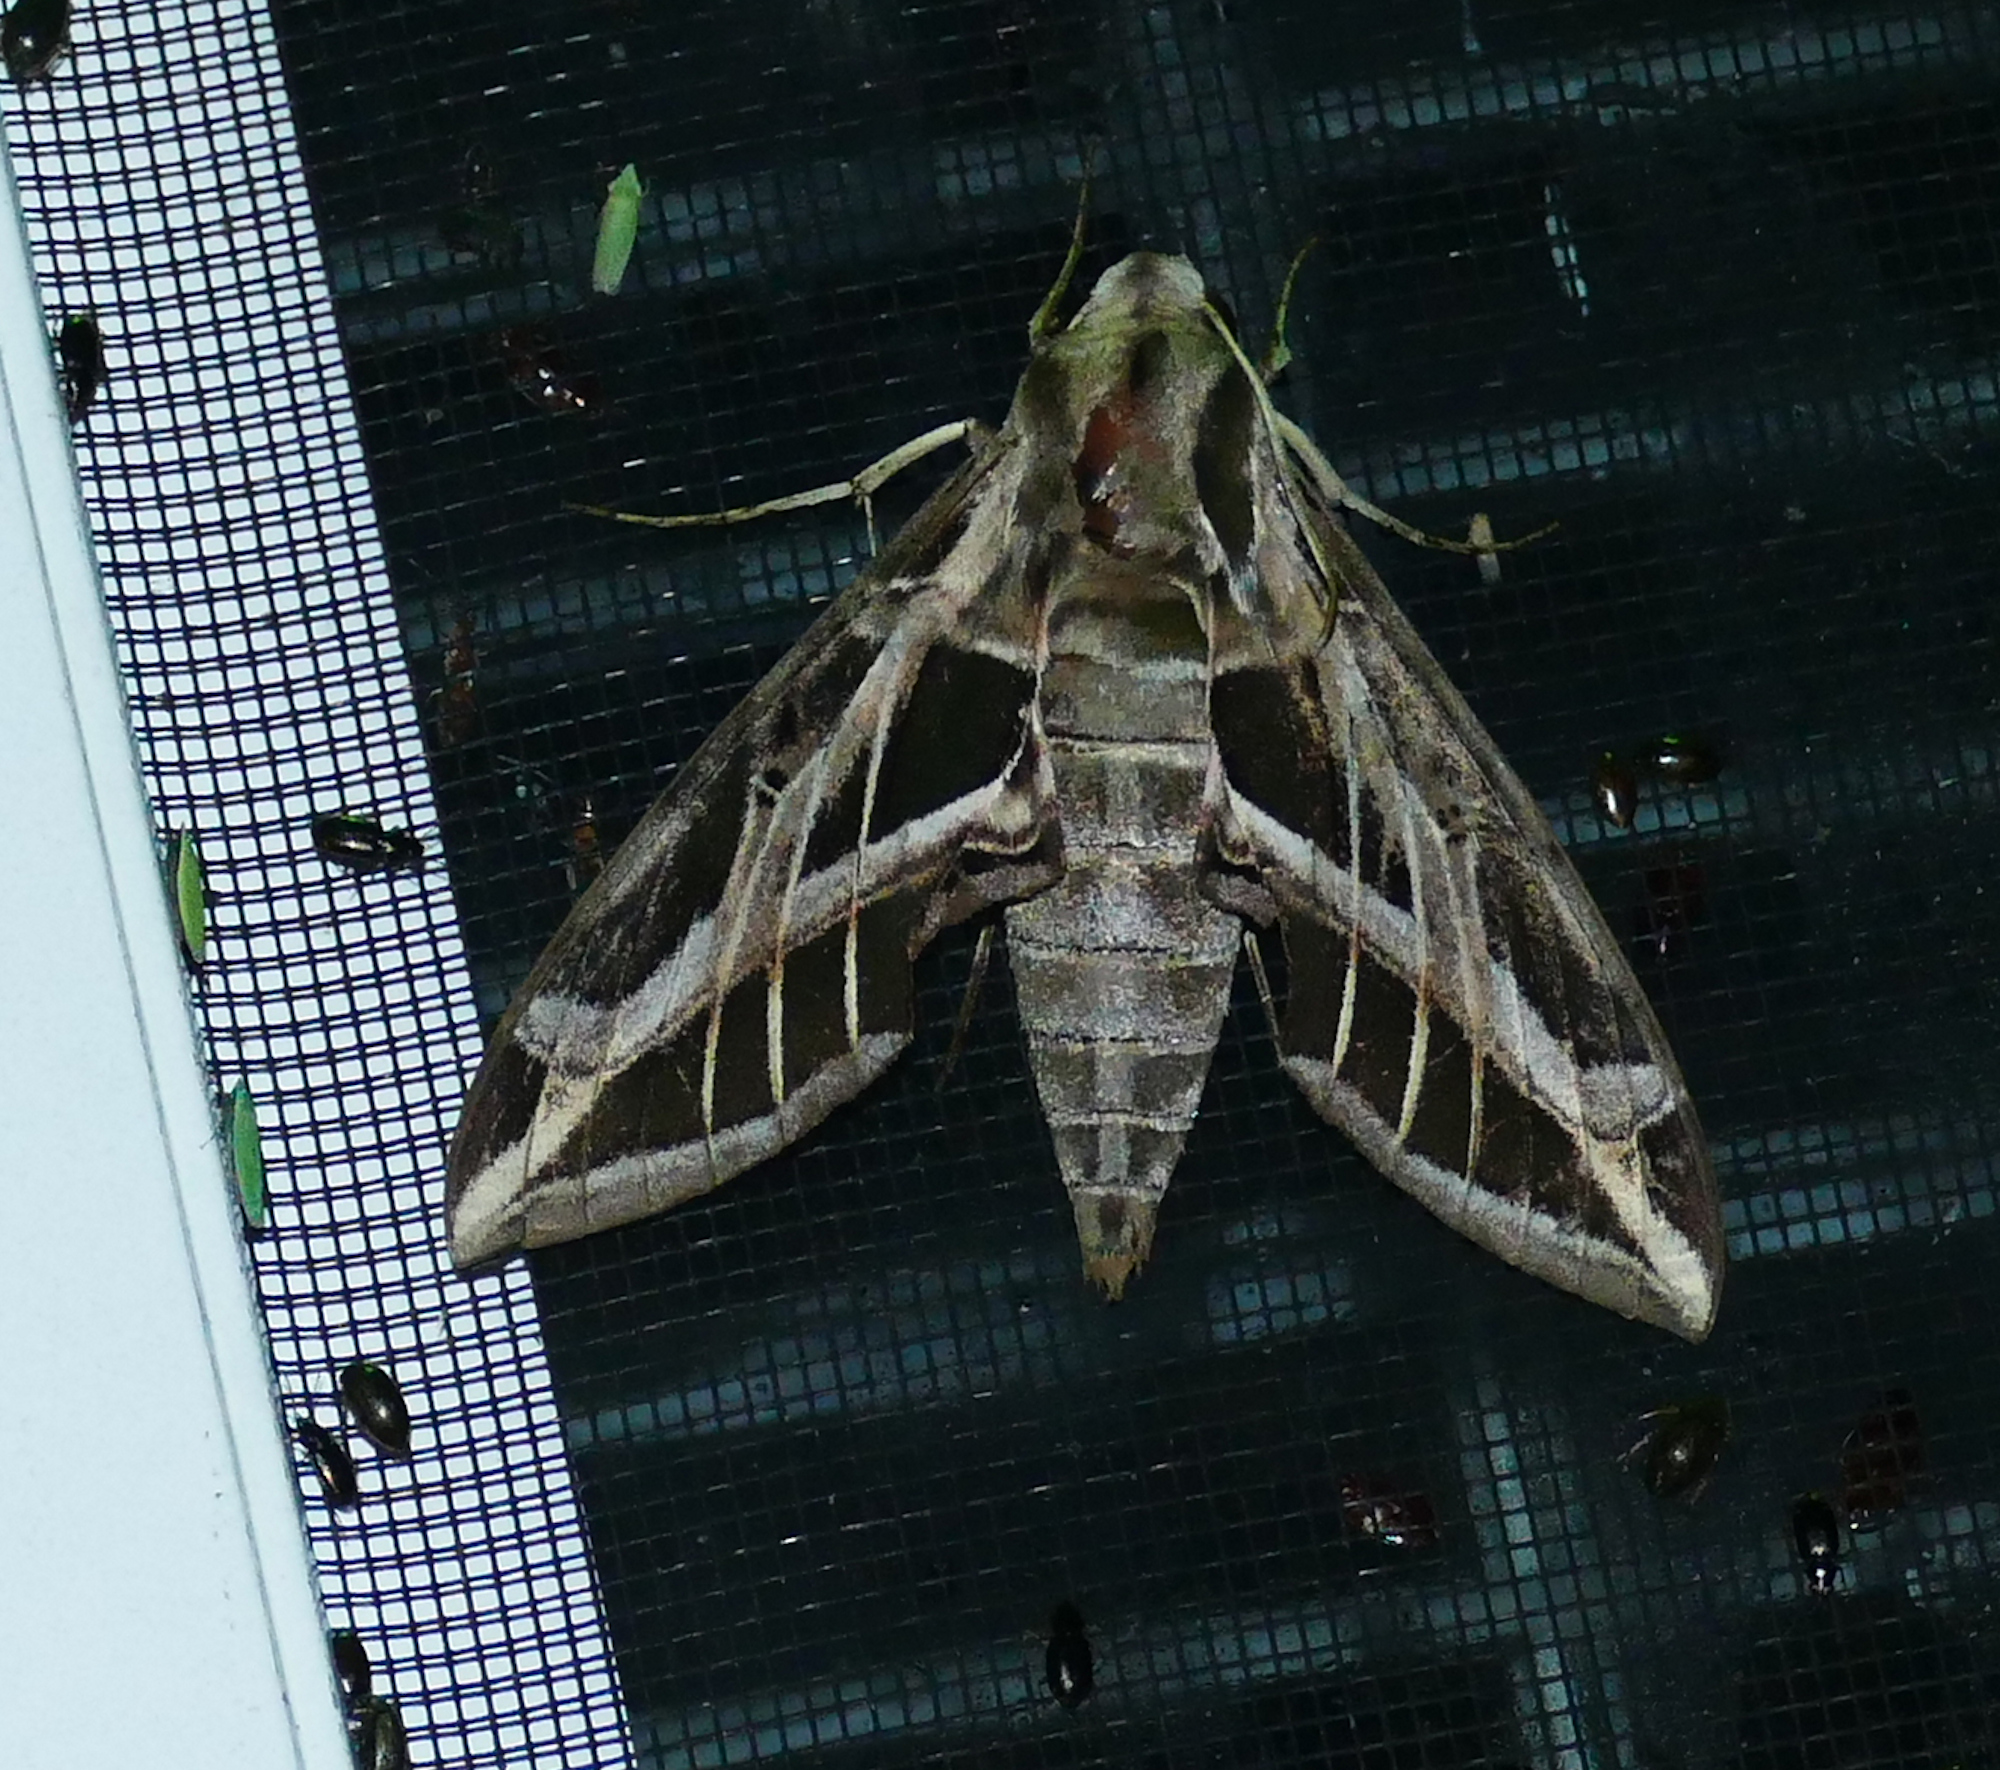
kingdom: Animalia
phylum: Arthropoda
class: Insecta
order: Lepidoptera
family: Sphingidae
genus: Eumorpha
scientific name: Eumorpha vitis
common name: Vine sphinx
